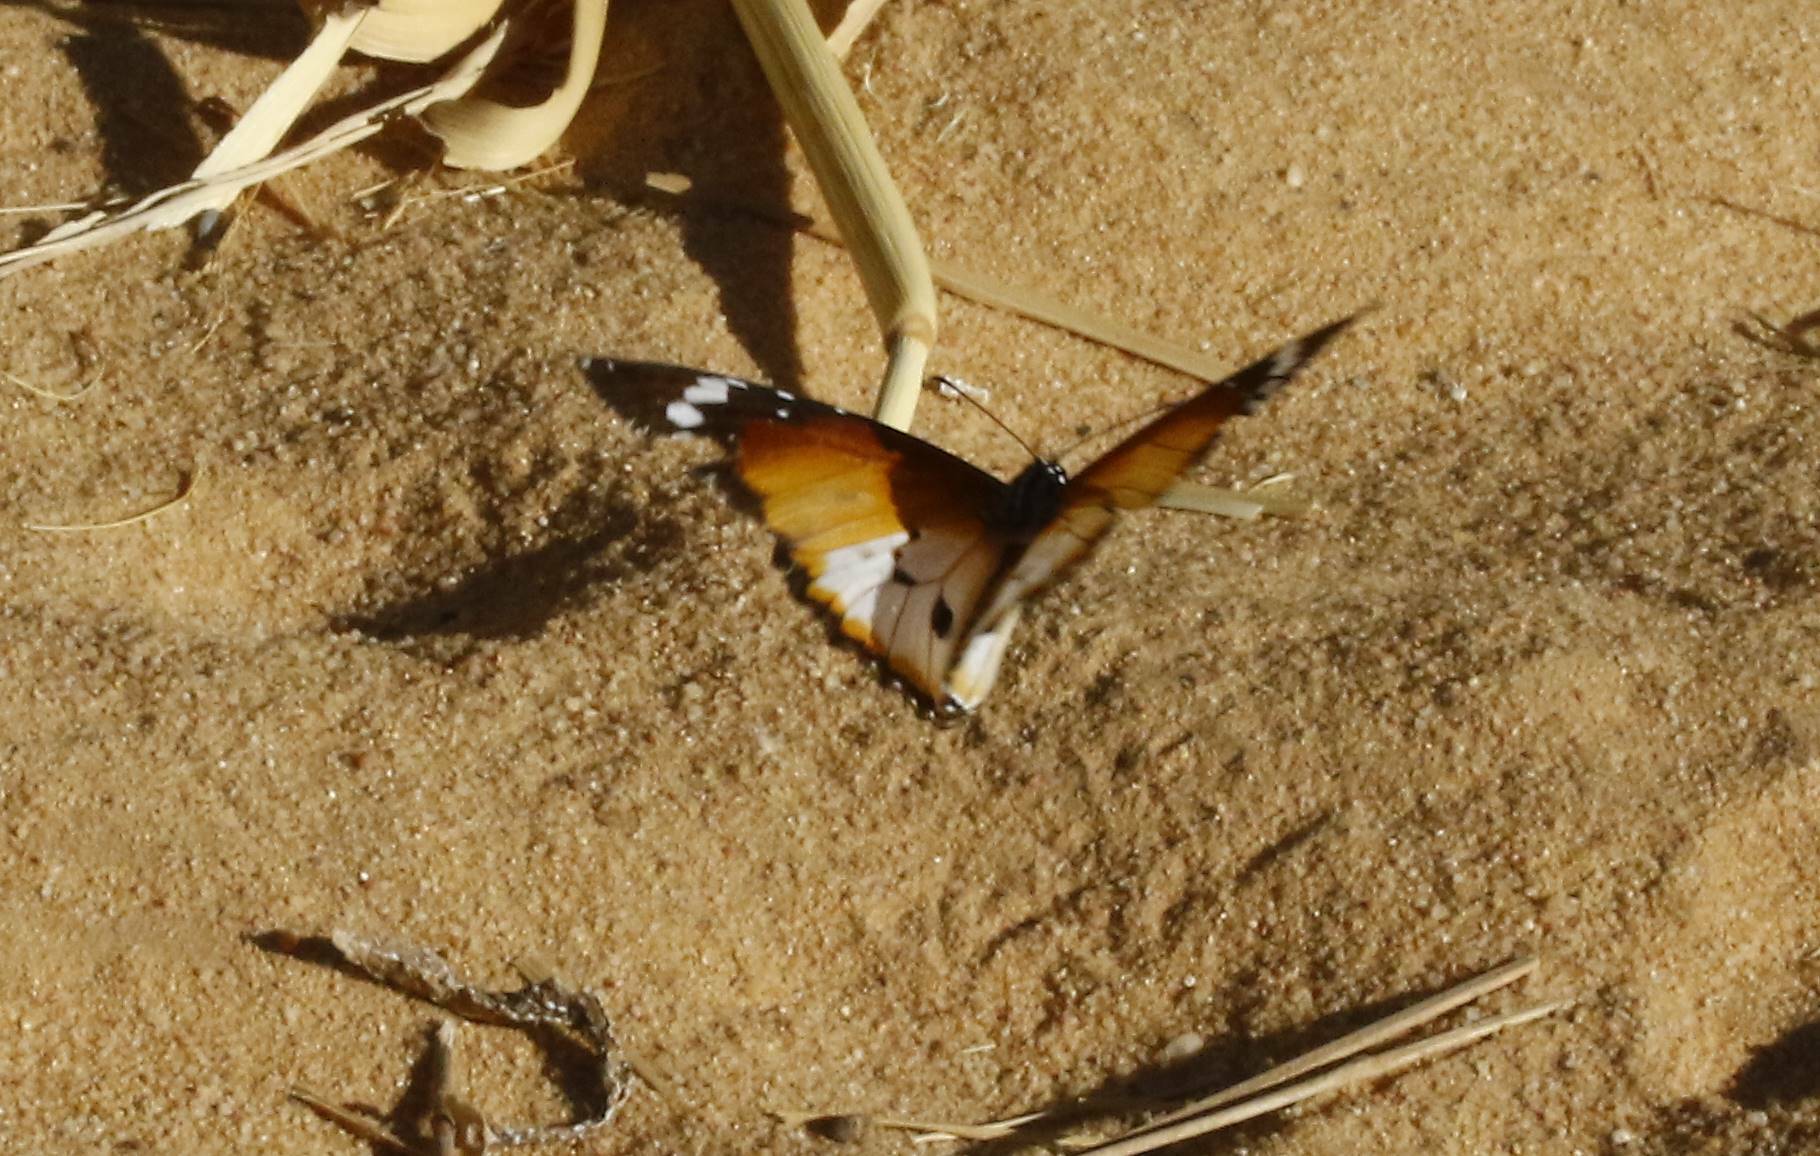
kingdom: Animalia
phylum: Arthropoda
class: Insecta
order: Lepidoptera
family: Nymphalidae
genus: Danaus
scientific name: Danaus chrysippus
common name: Plain tiger
